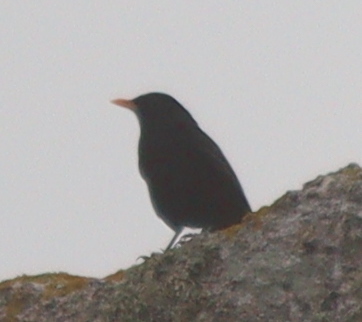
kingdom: Animalia
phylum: Chordata
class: Aves
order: Passeriformes
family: Turdidae
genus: Turdus
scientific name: Turdus merula
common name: Common blackbird
